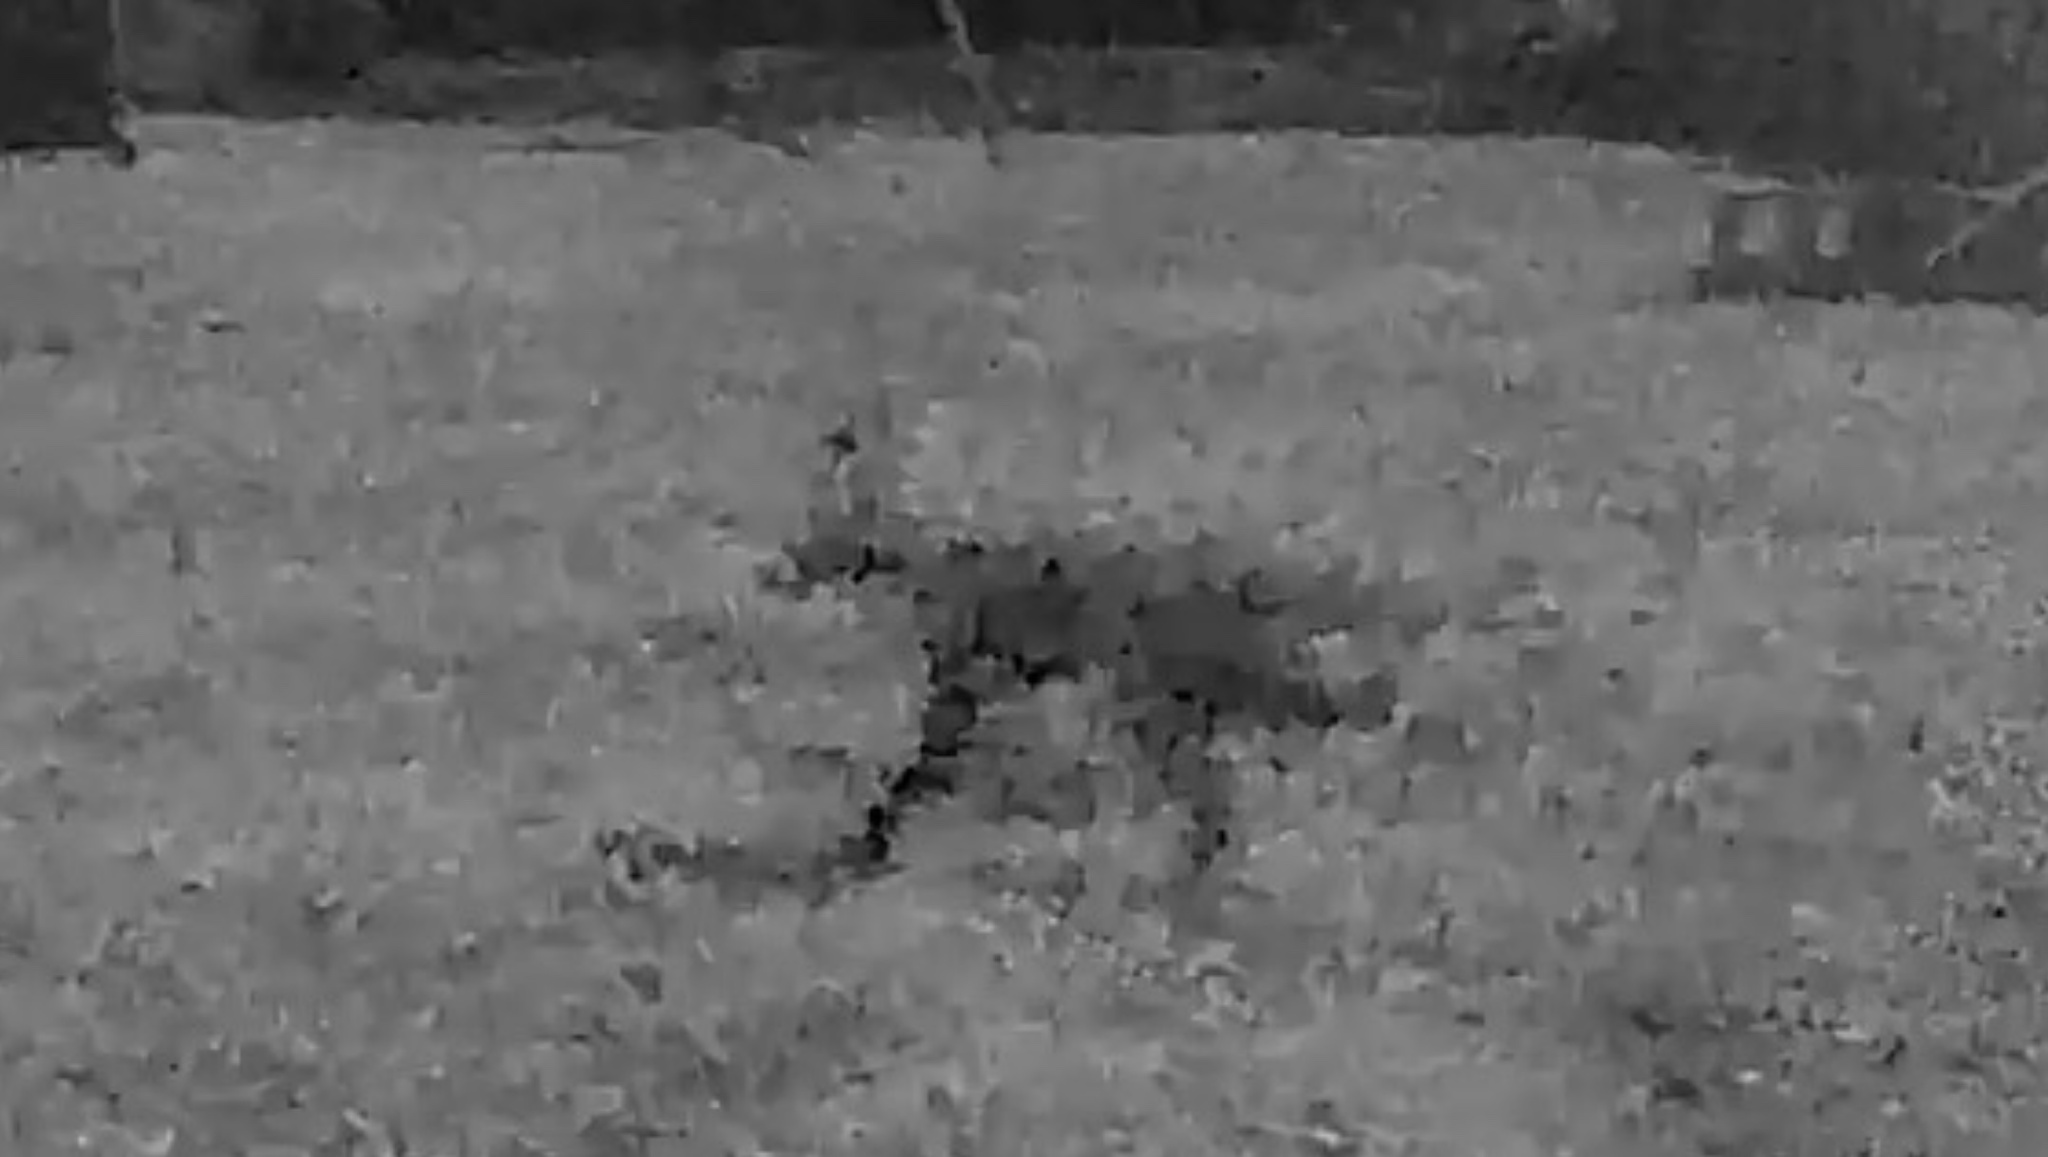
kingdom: Animalia
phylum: Chordata
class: Mammalia
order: Carnivora
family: Canidae
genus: Vulpes
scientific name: Vulpes vulpes
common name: Red fox
